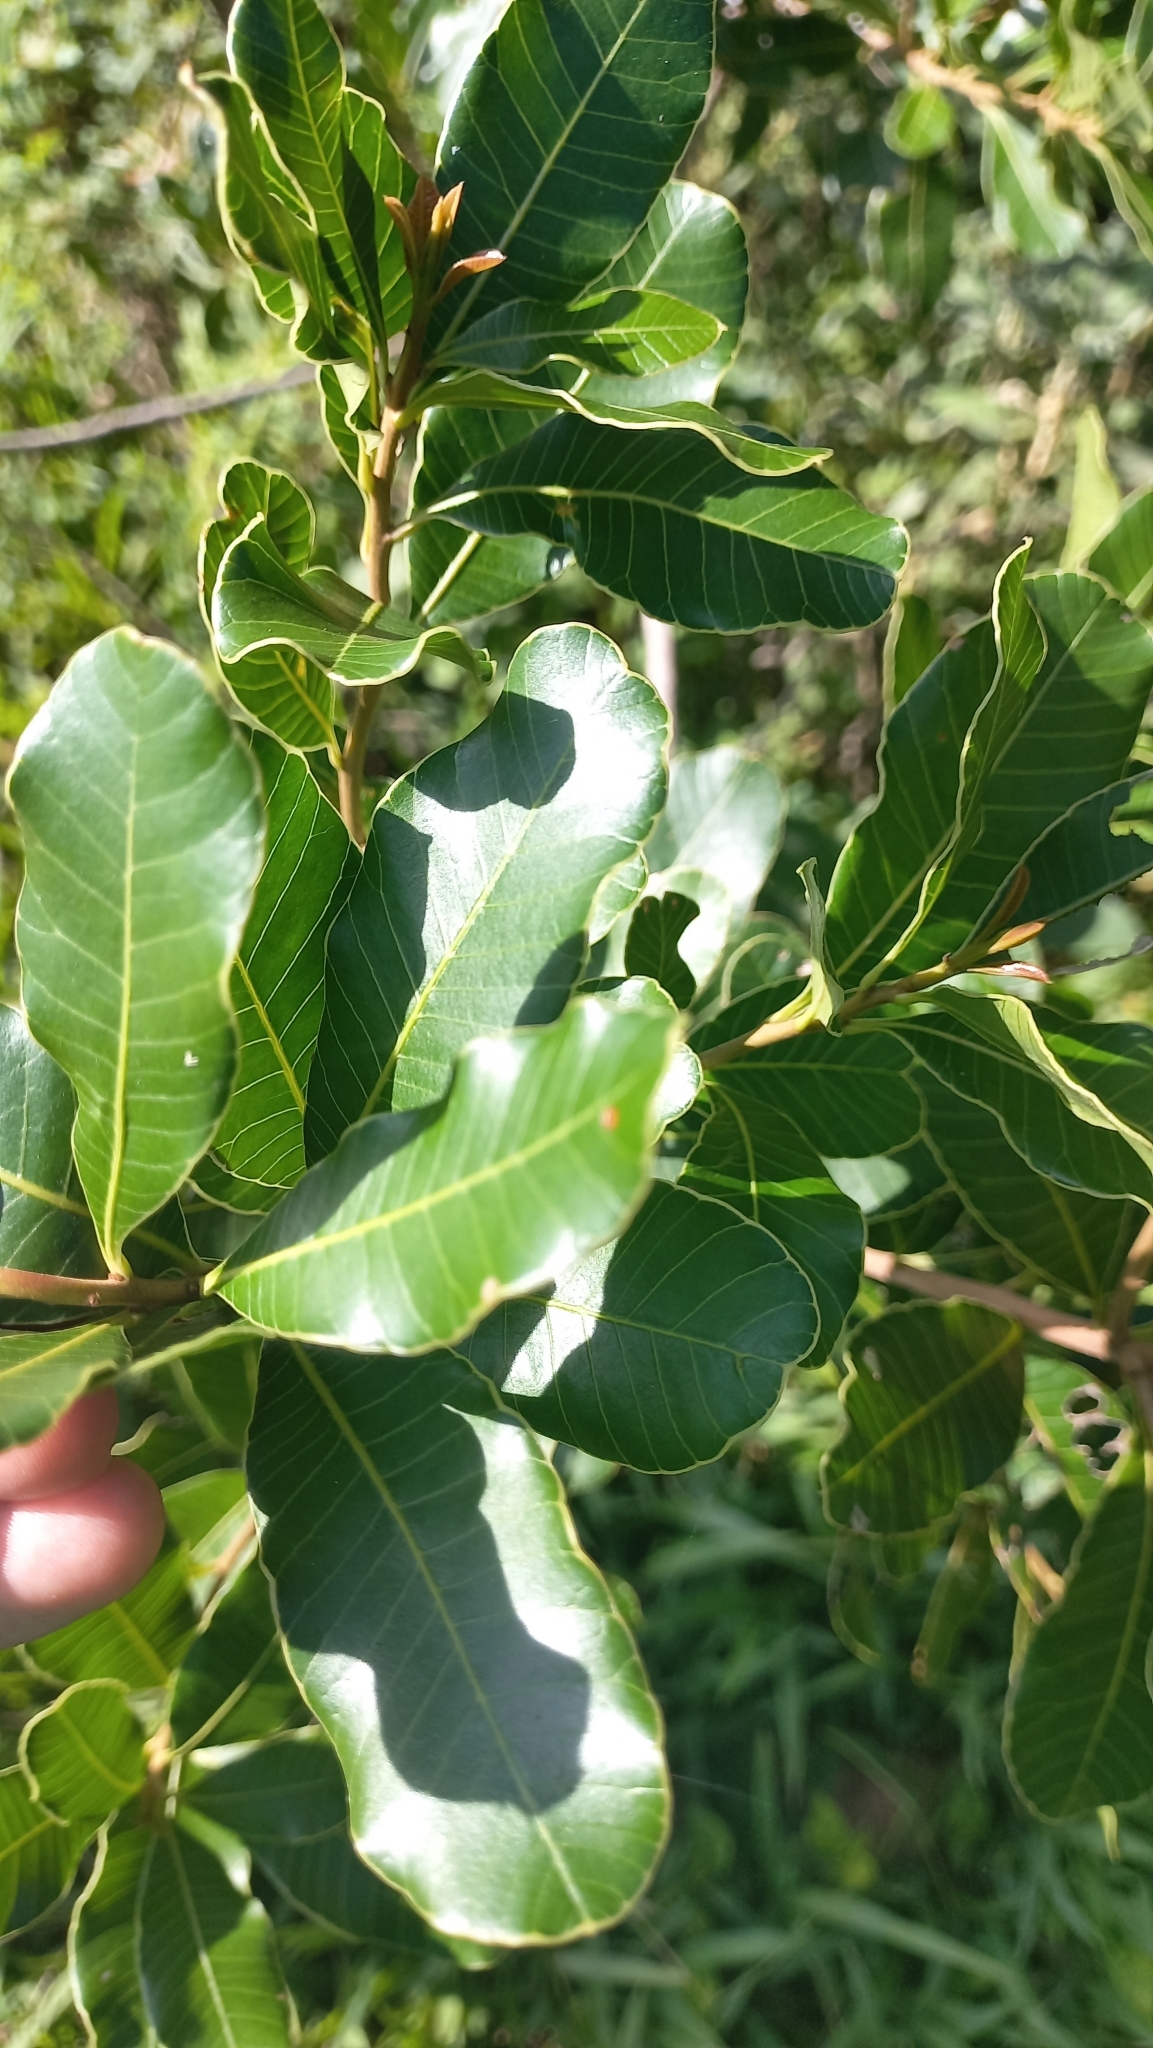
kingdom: Plantae
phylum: Tracheophyta
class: Magnoliopsida
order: Sapindales
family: Anacardiaceae
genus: Lithraea
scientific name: Lithraea brasiliensis
